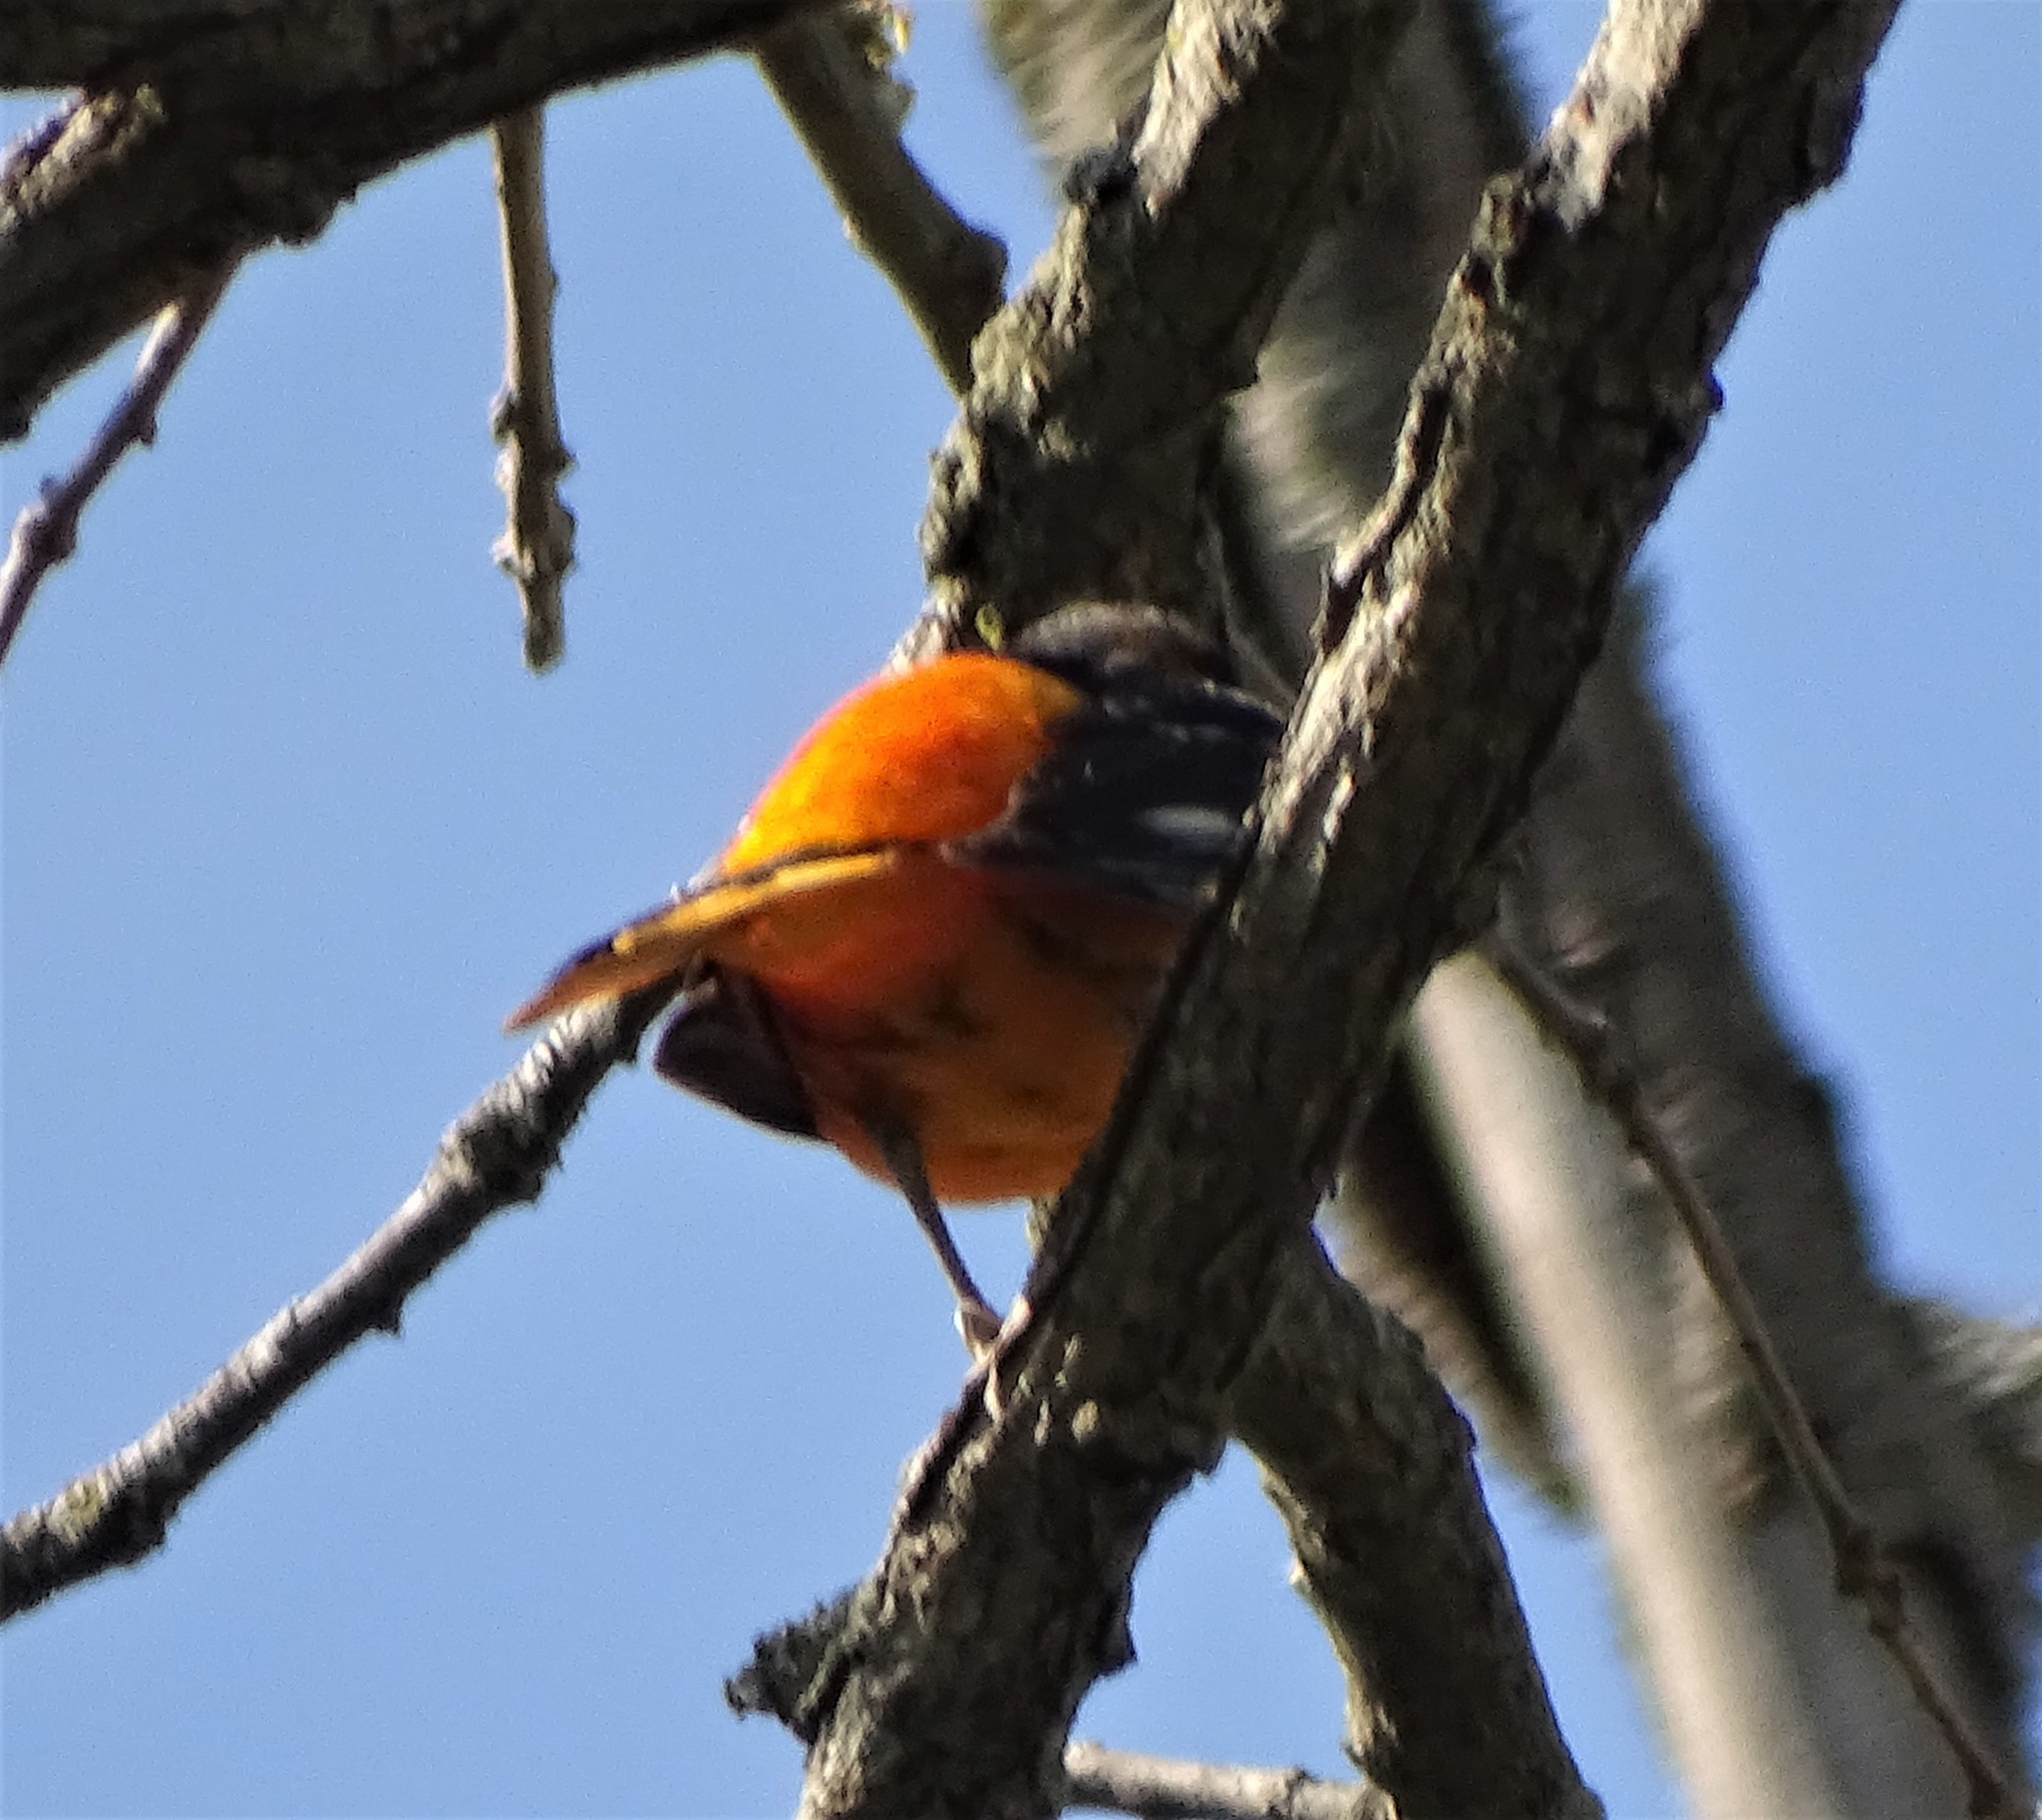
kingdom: Animalia
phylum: Chordata
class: Aves
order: Passeriformes
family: Icteridae
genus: Icterus
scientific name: Icterus galbula
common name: Baltimore oriole
